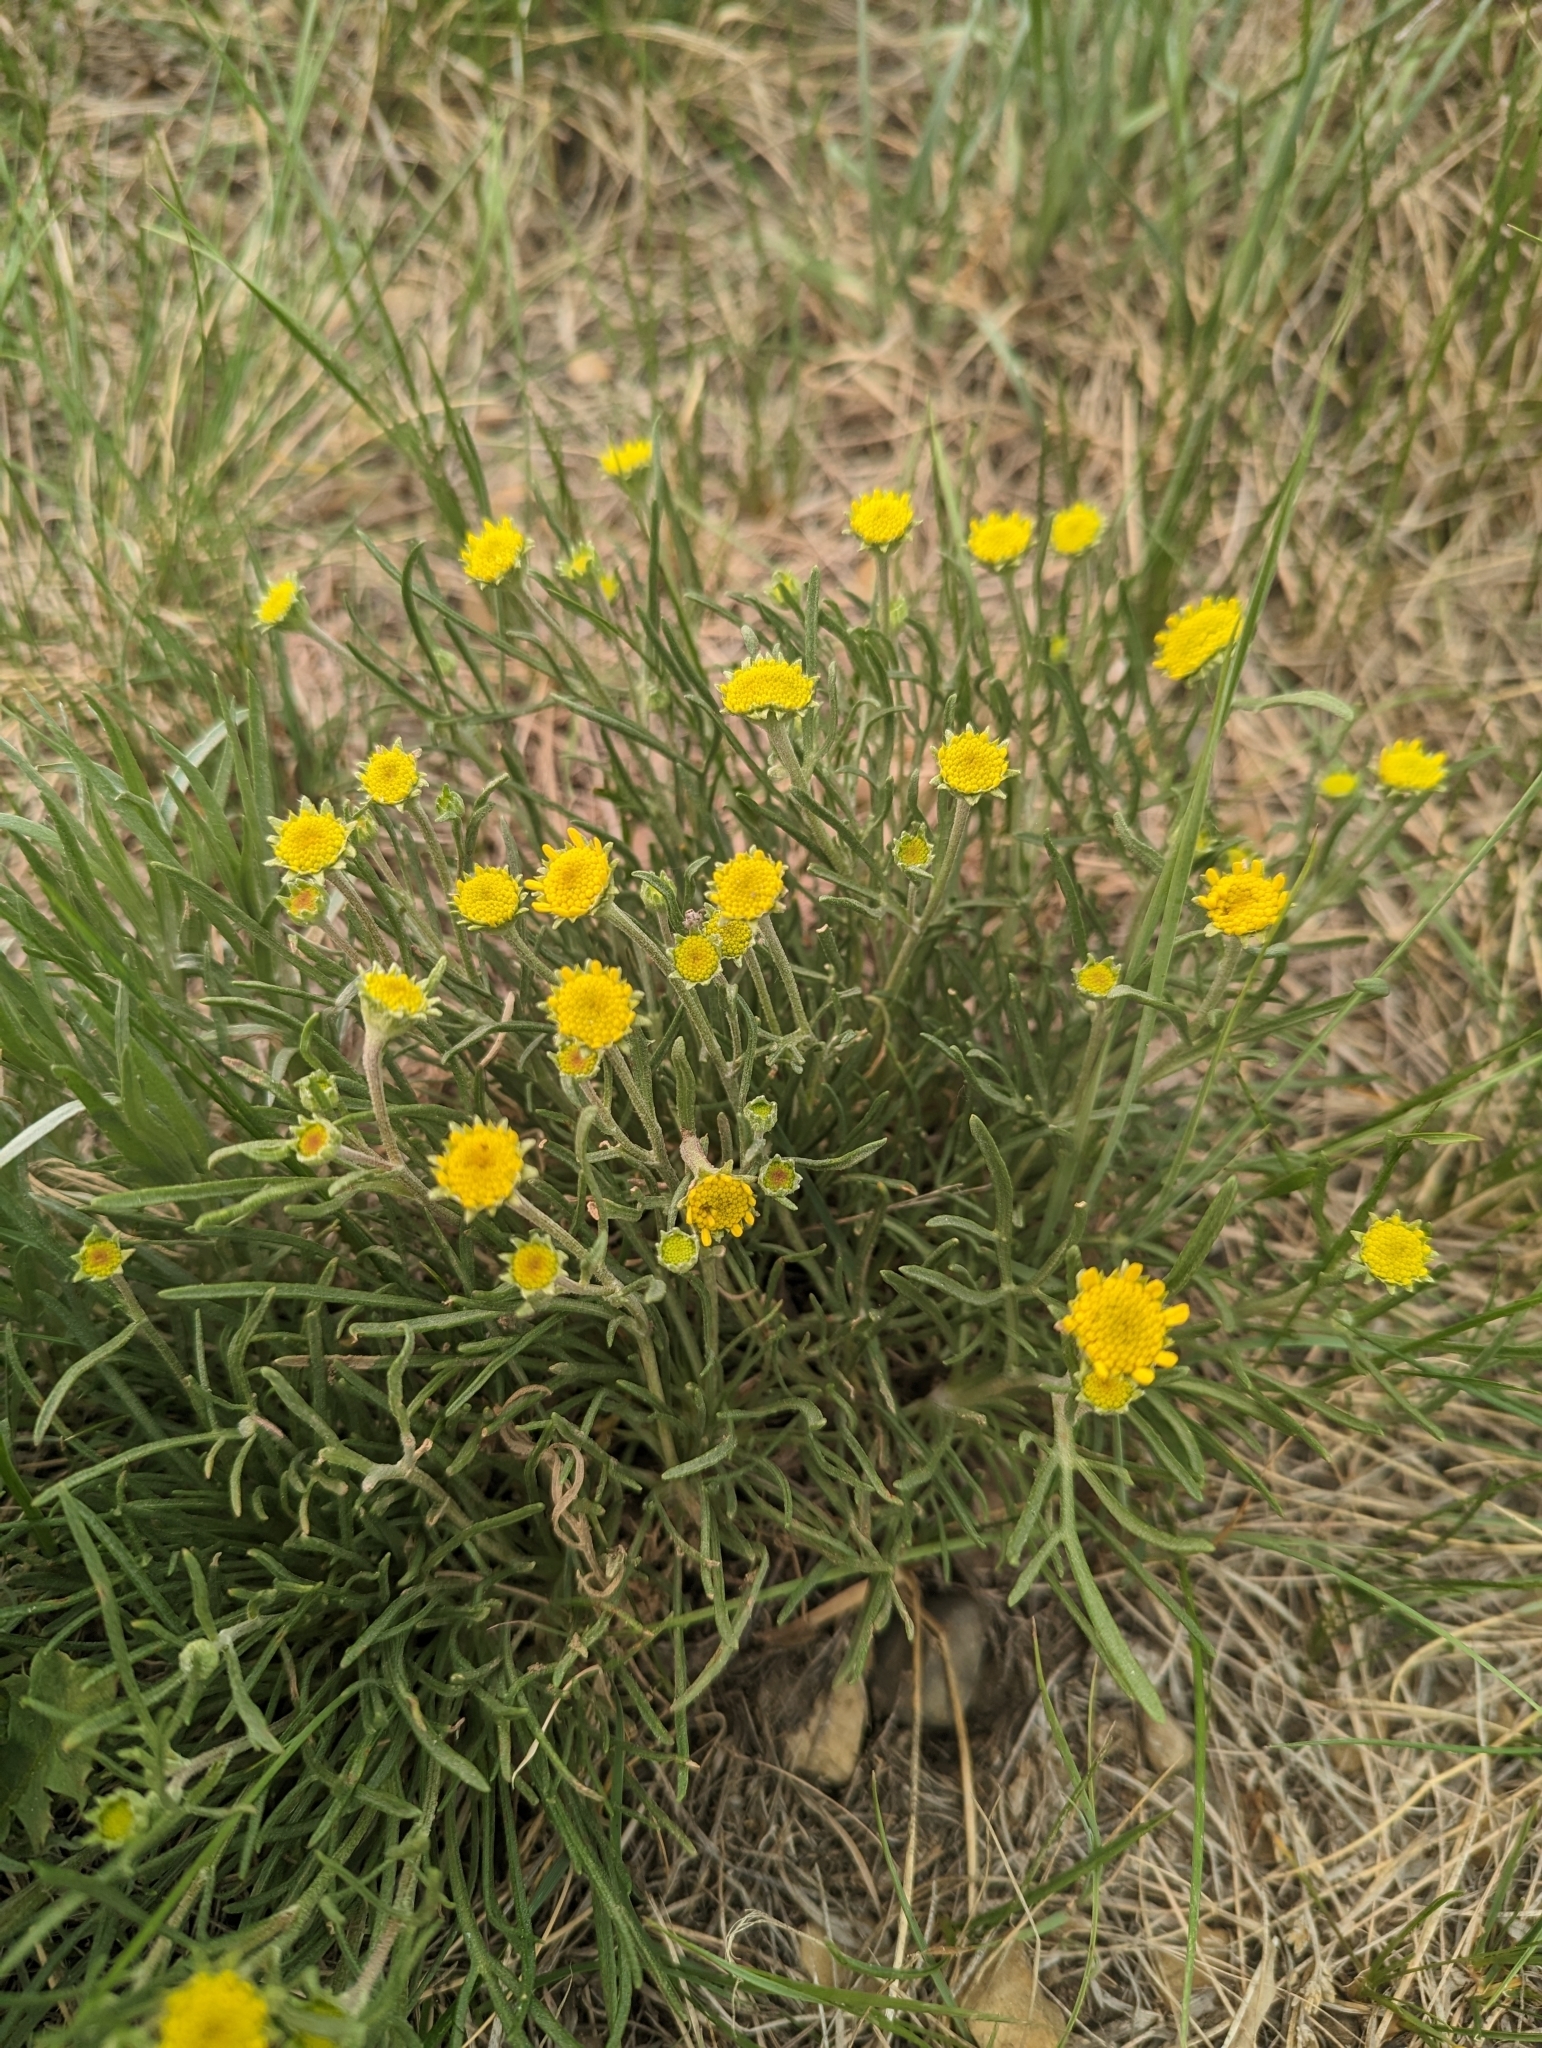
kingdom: Plantae
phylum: Tracheophyta
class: Magnoliopsida
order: Asterales
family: Asteraceae
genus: Hymenoxys
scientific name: Hymenoxys richardsonii
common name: Pingue rubberweed
